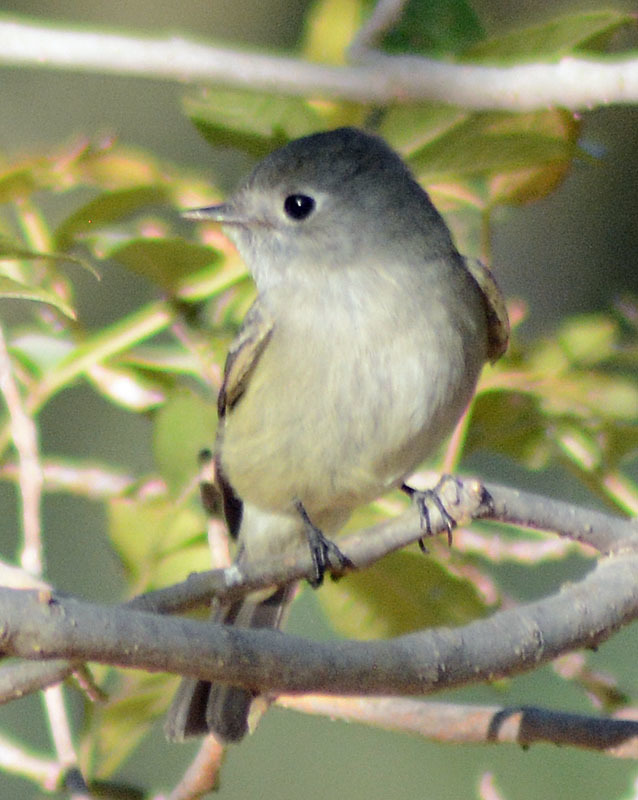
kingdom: Animalia
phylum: Chordata
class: Aves
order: Passeriformes
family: Tyrannidae
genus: Empidonax
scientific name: Empidonax hammondii
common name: Hammond's flycatcher
